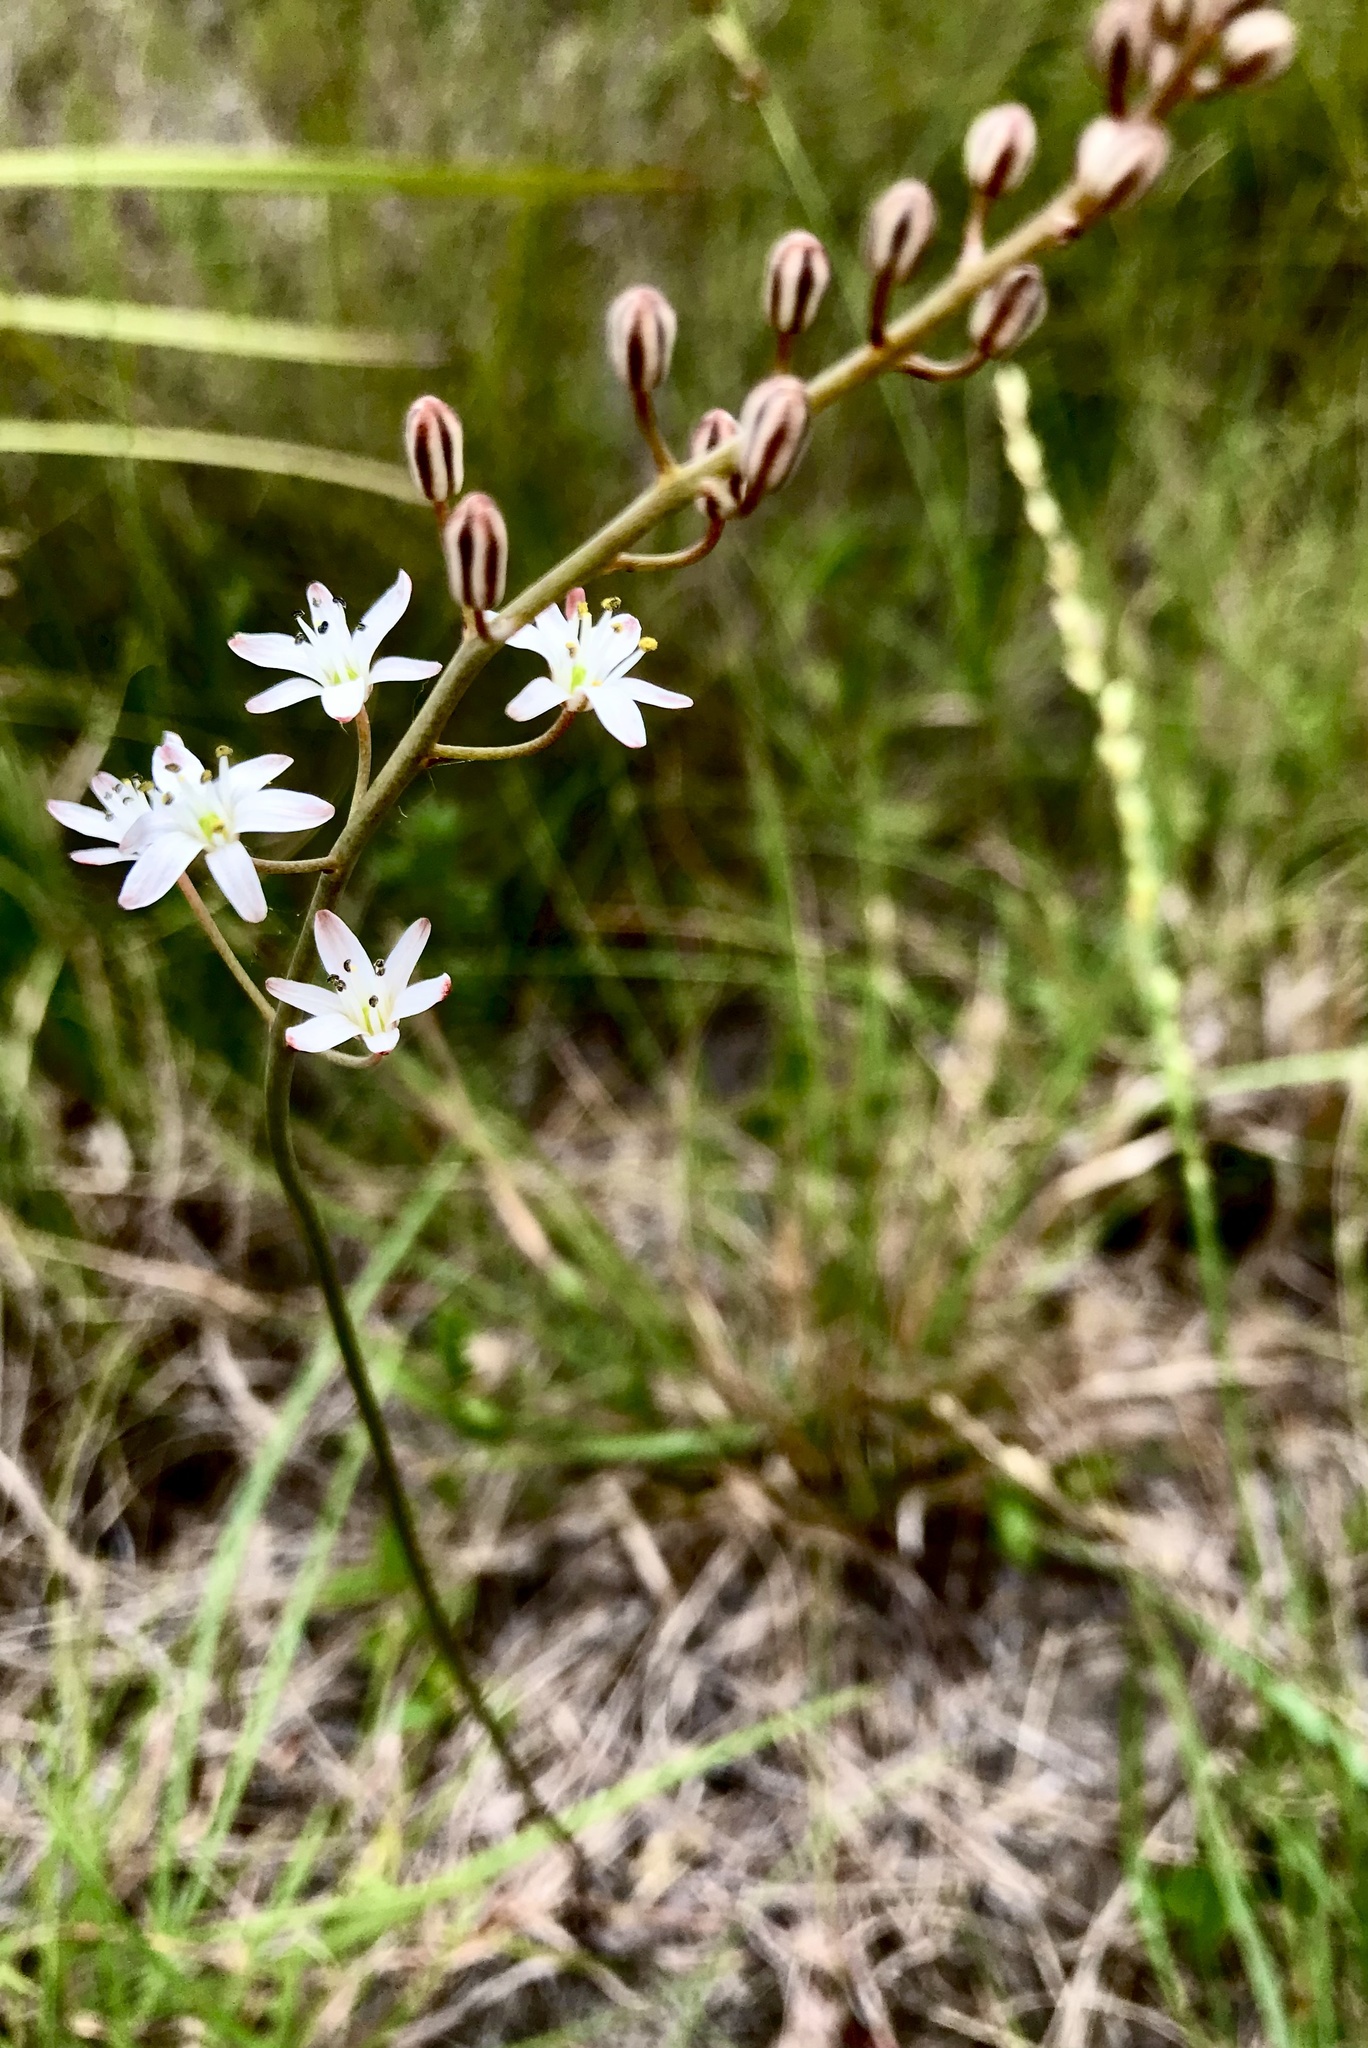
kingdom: Plantae
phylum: Tracheophyta
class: Liliopsida
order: Asparagales
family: Asparagaceae
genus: Eriospermum
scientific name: Eriospermum dielsianum
